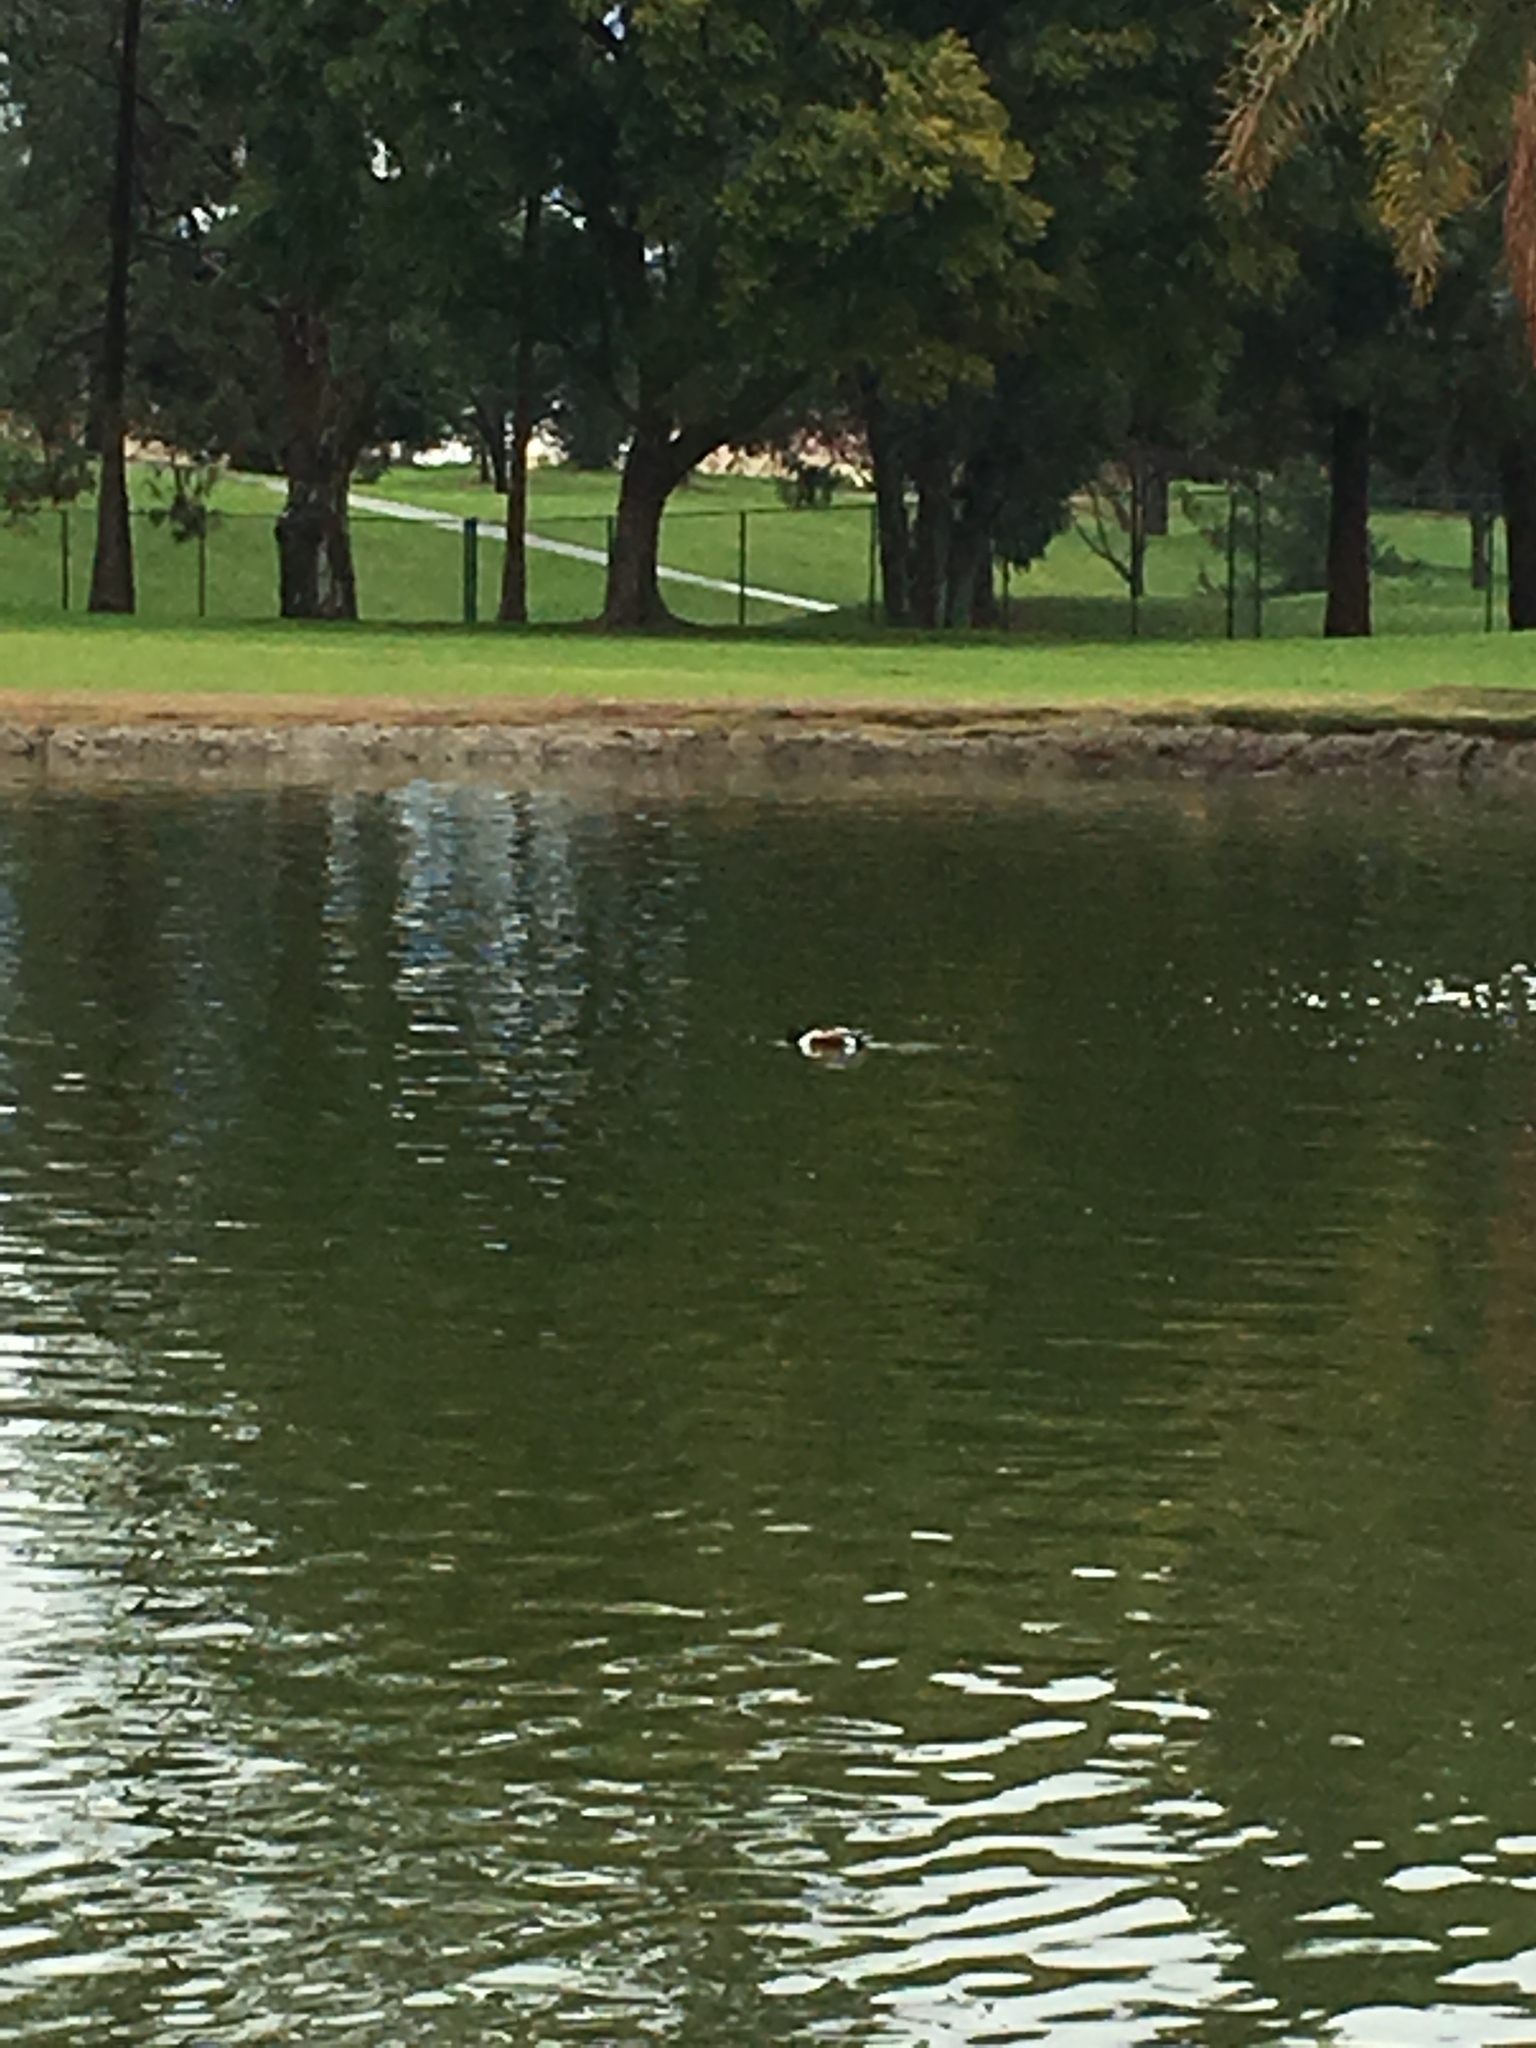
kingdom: Animalia
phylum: Chordata
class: Aves
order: Anseriformes
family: Anatidae
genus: Spatula
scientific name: Spatula clypeata
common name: Northern shoveler
